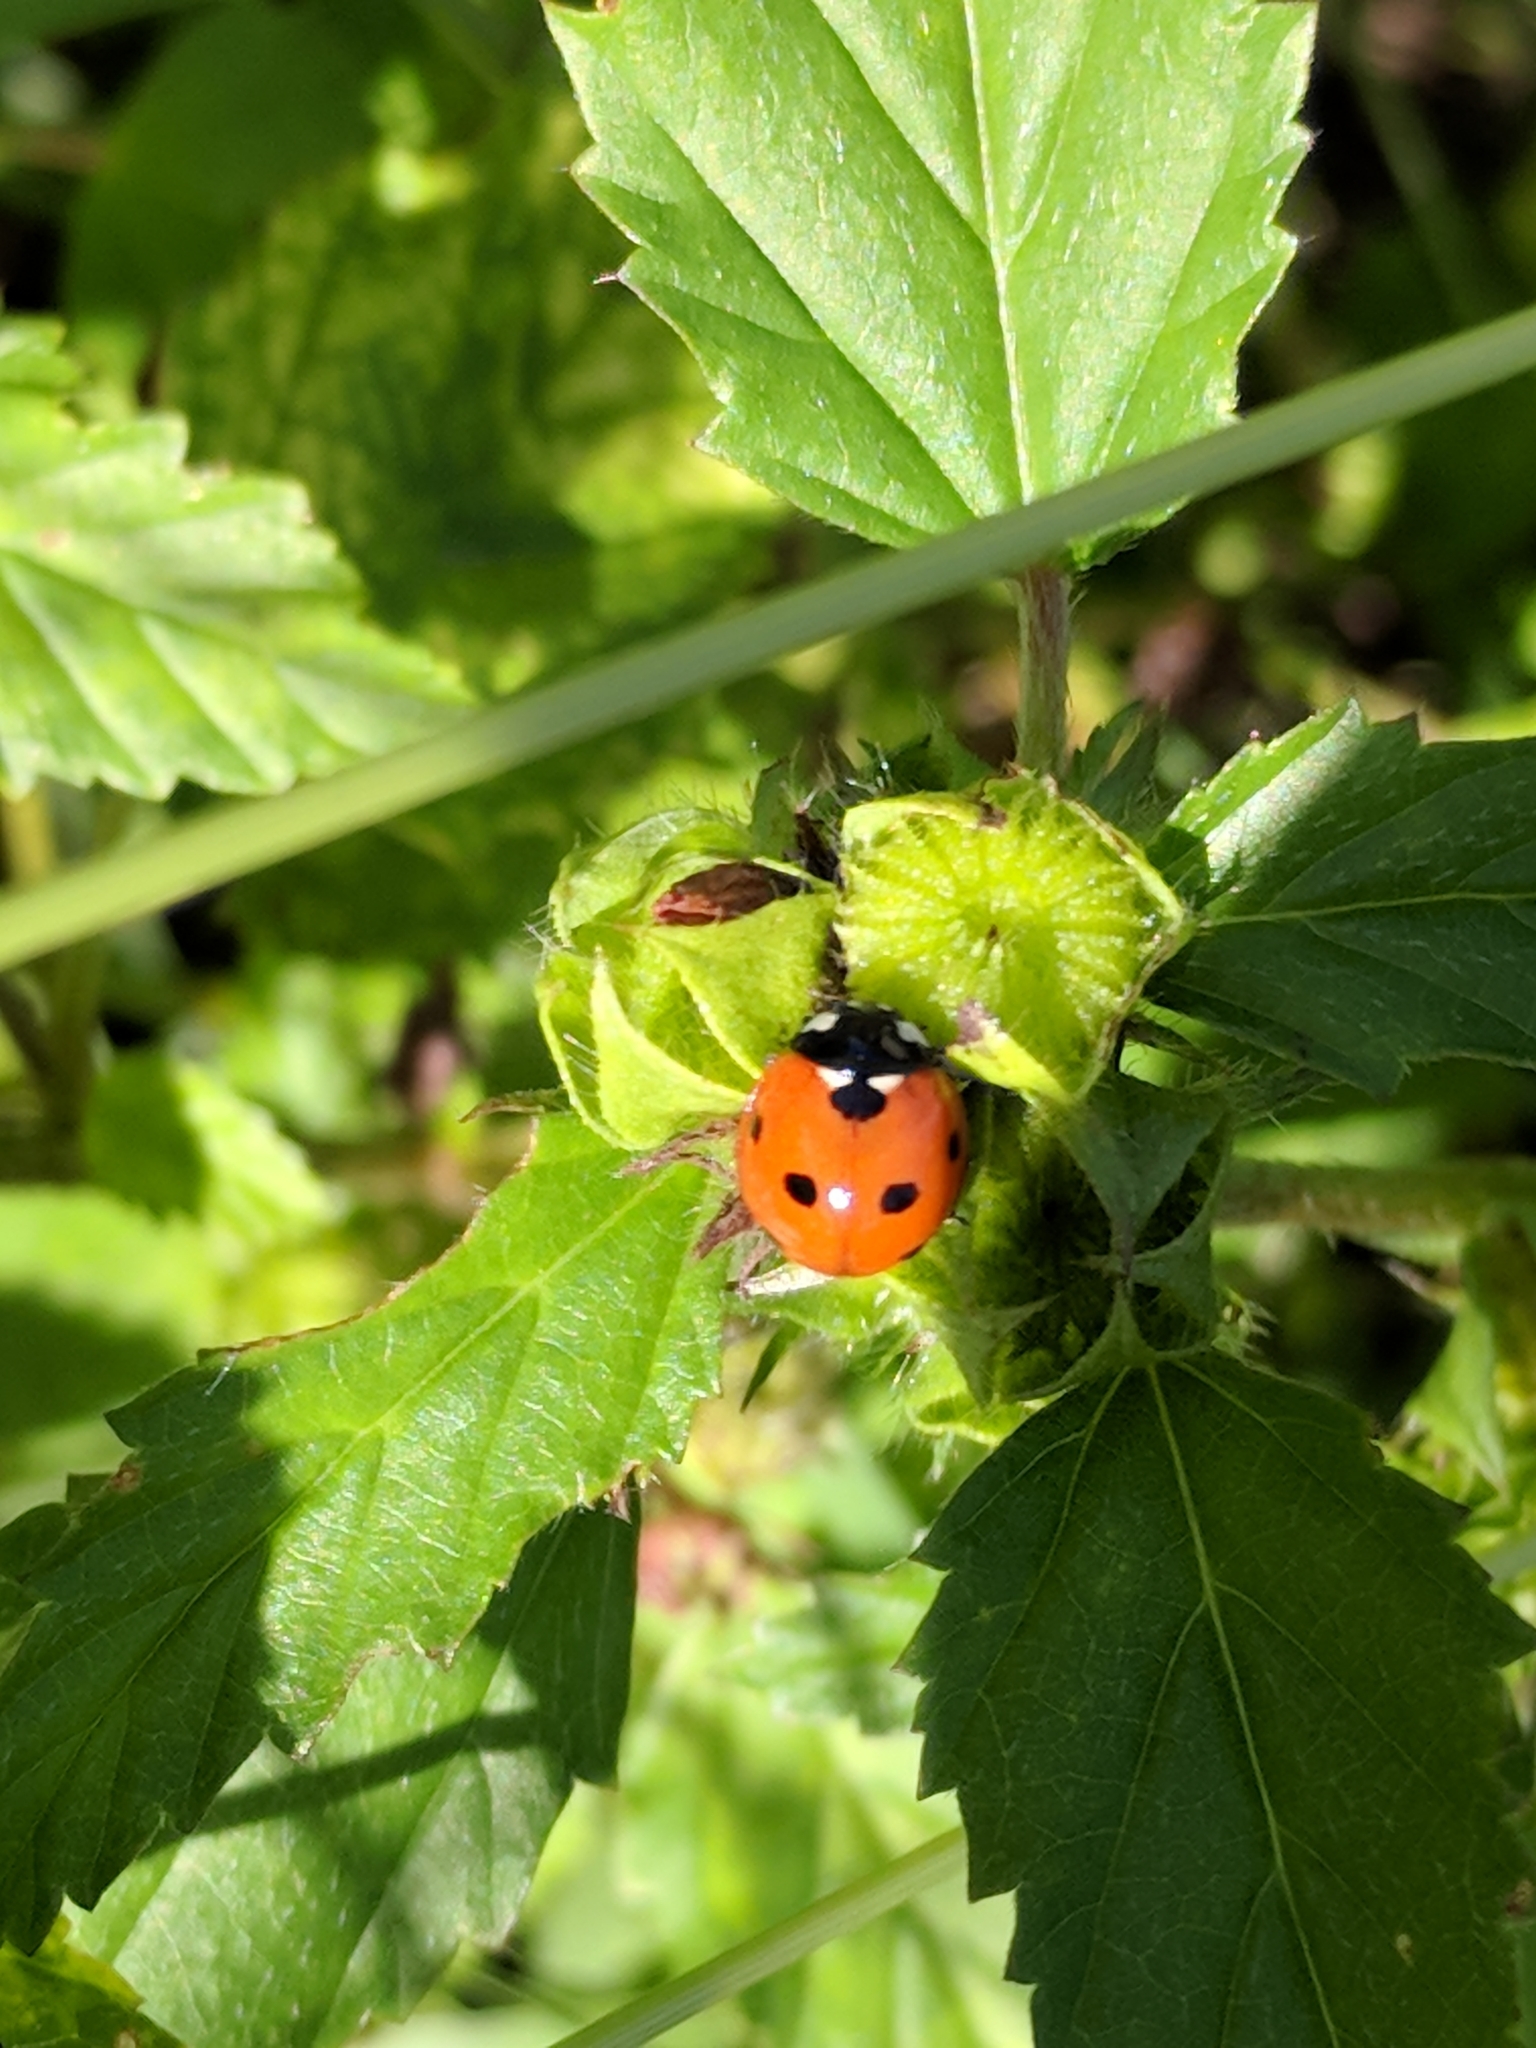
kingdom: Animalia
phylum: Arthropoda
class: Insecta
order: Coleoptera
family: Coccinellidae
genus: Coccinella
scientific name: Coccinella septempunctata
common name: Sevenspotted lady beetle
